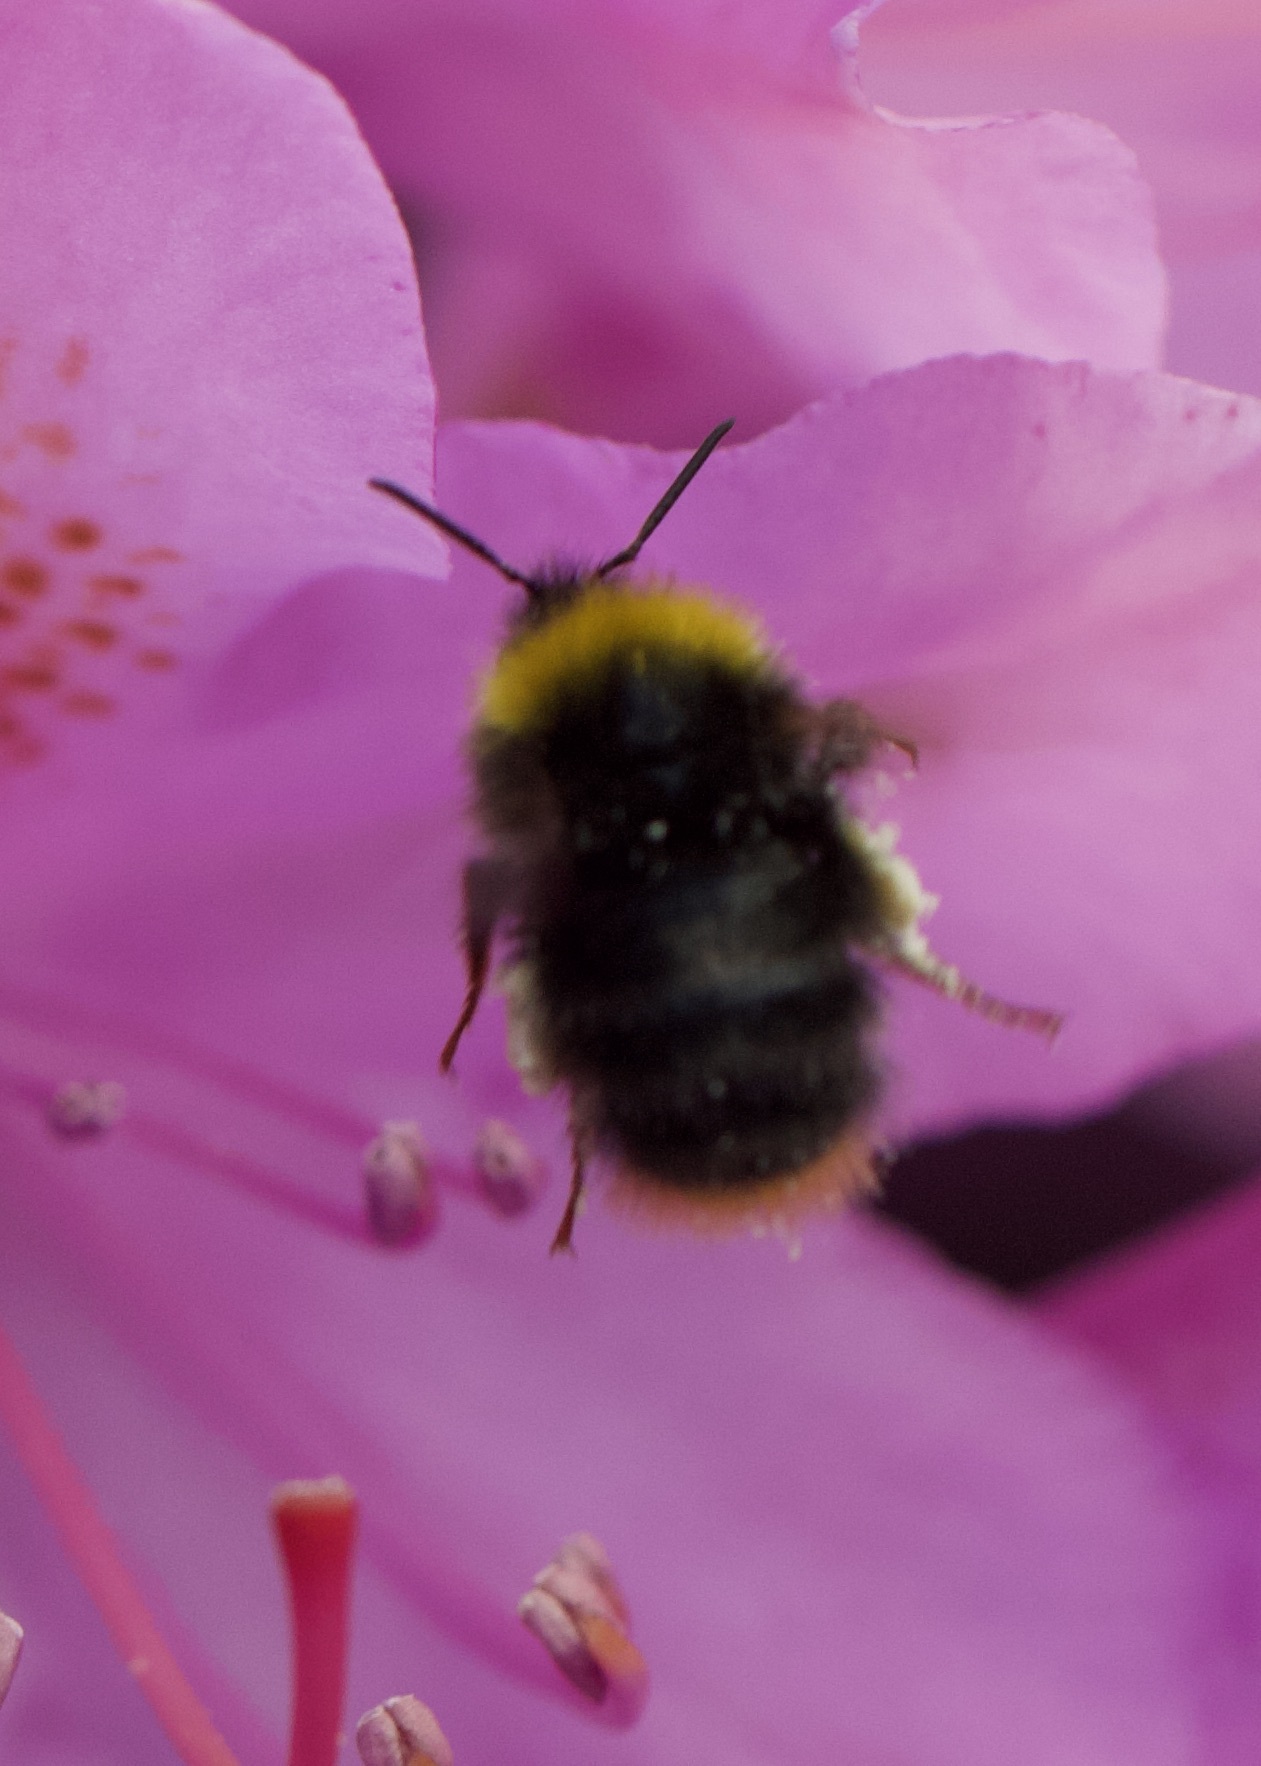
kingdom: Animalia
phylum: Arthropoda
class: Insecta
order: Hymenoptera
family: Apidae
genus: Bombus
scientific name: Bombus pratorum
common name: Early humble-bee
